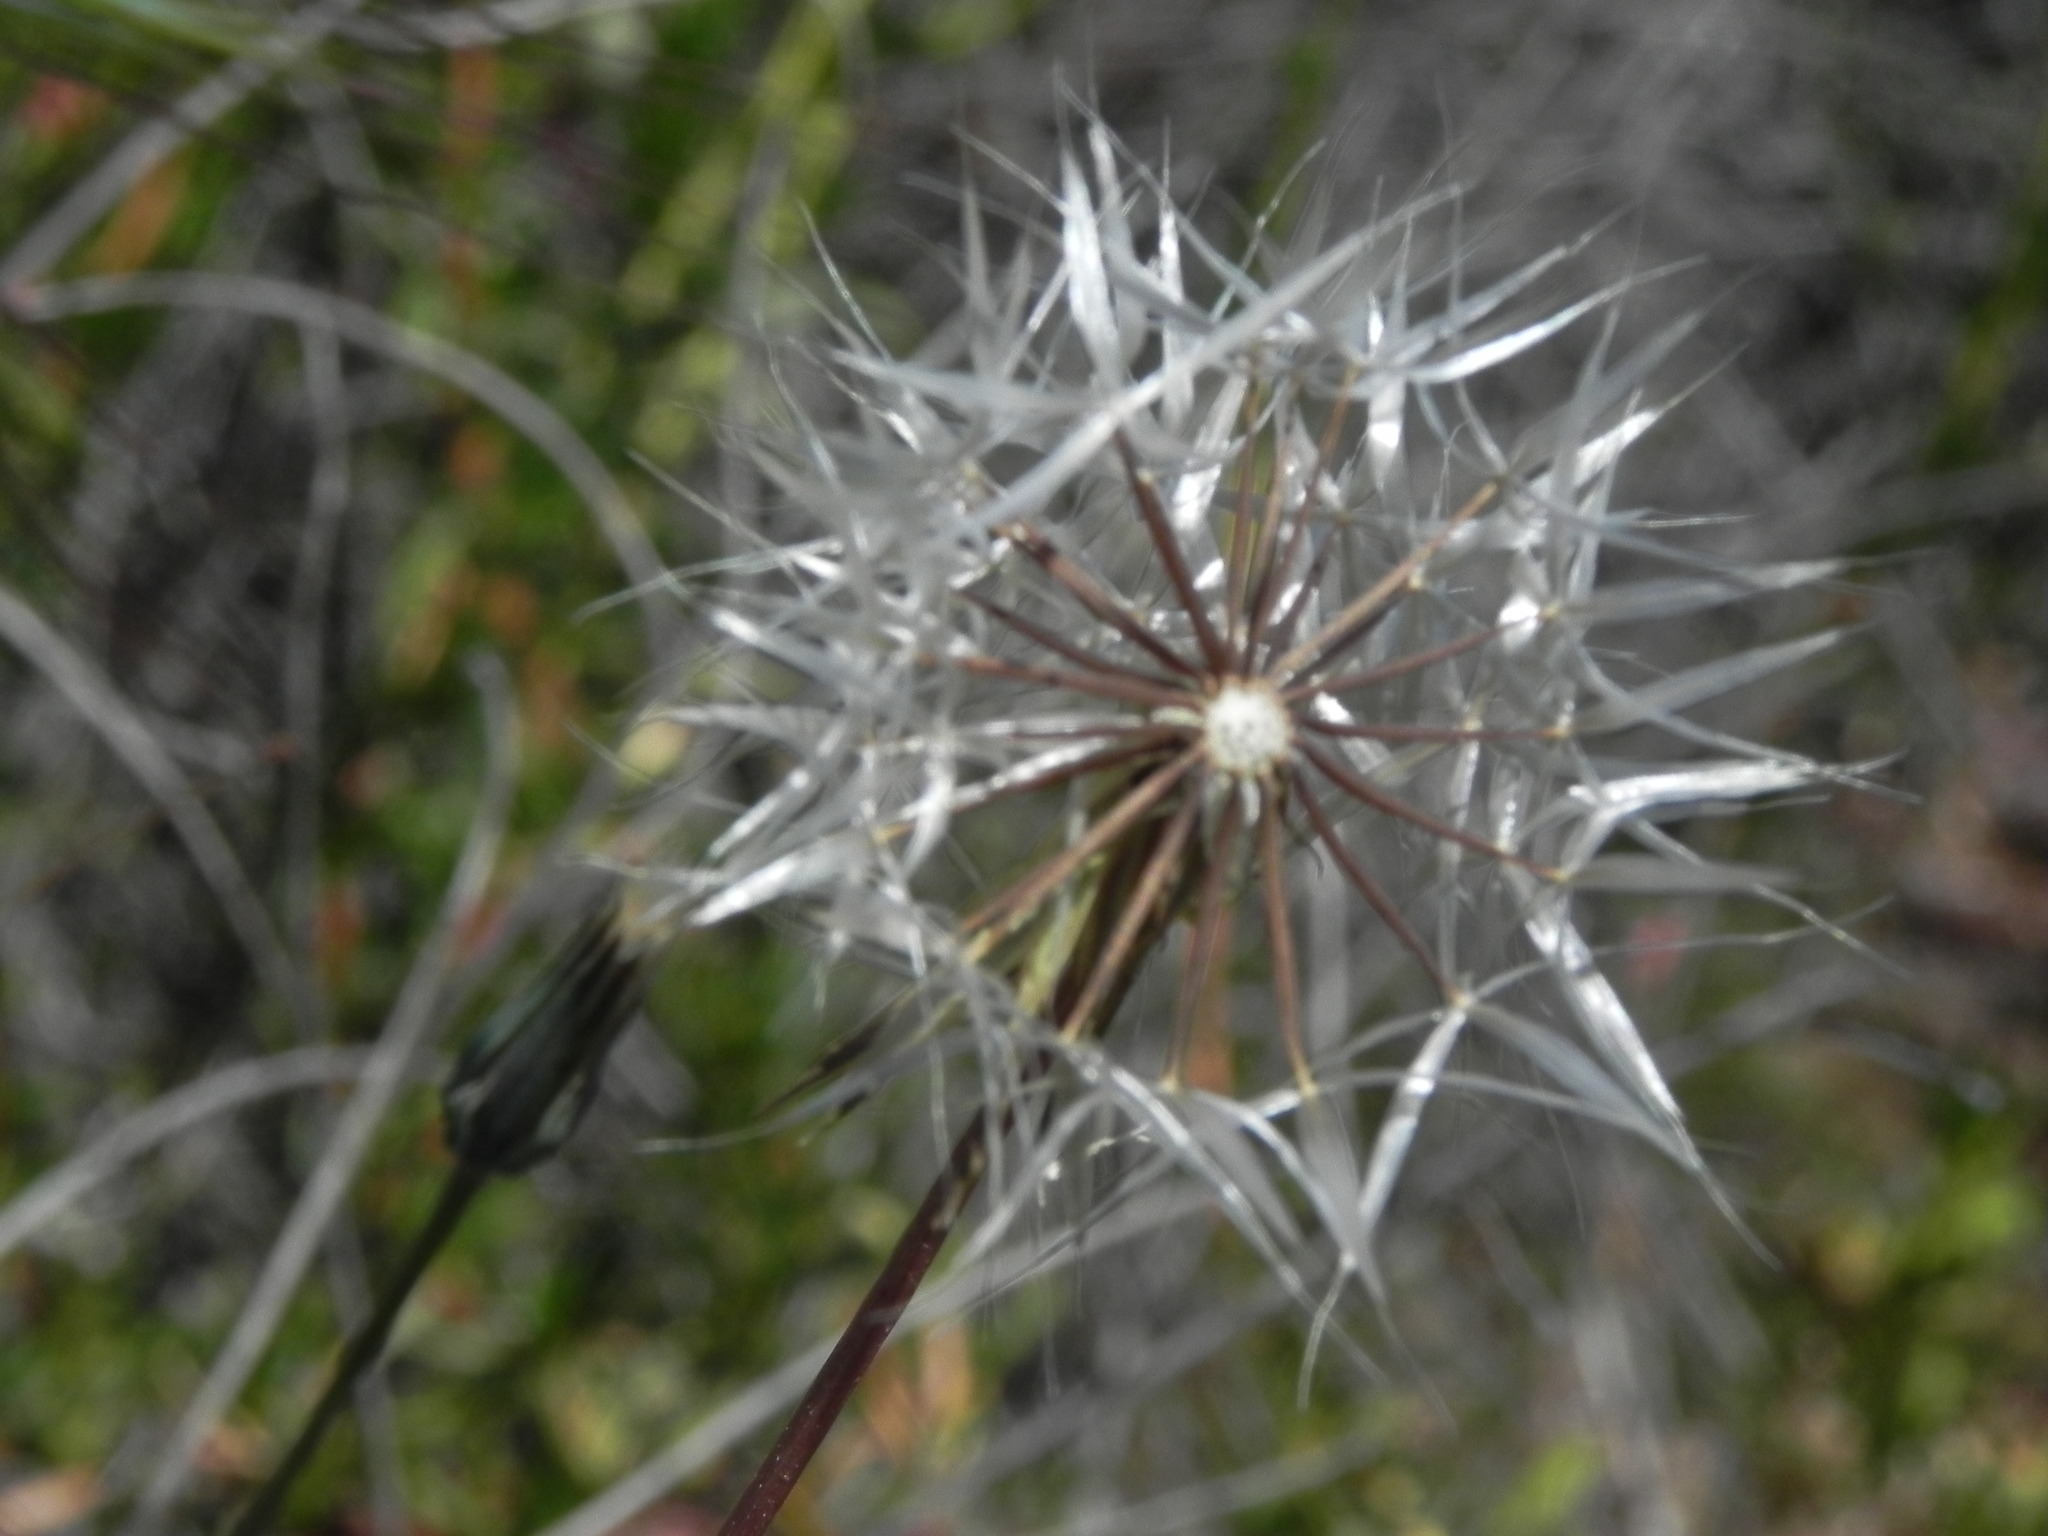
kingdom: Plantae
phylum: Tracheophyta
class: Magnoliopsida
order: Asterales
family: Asteraceae
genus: Microseris
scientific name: Microseris lindleyi
